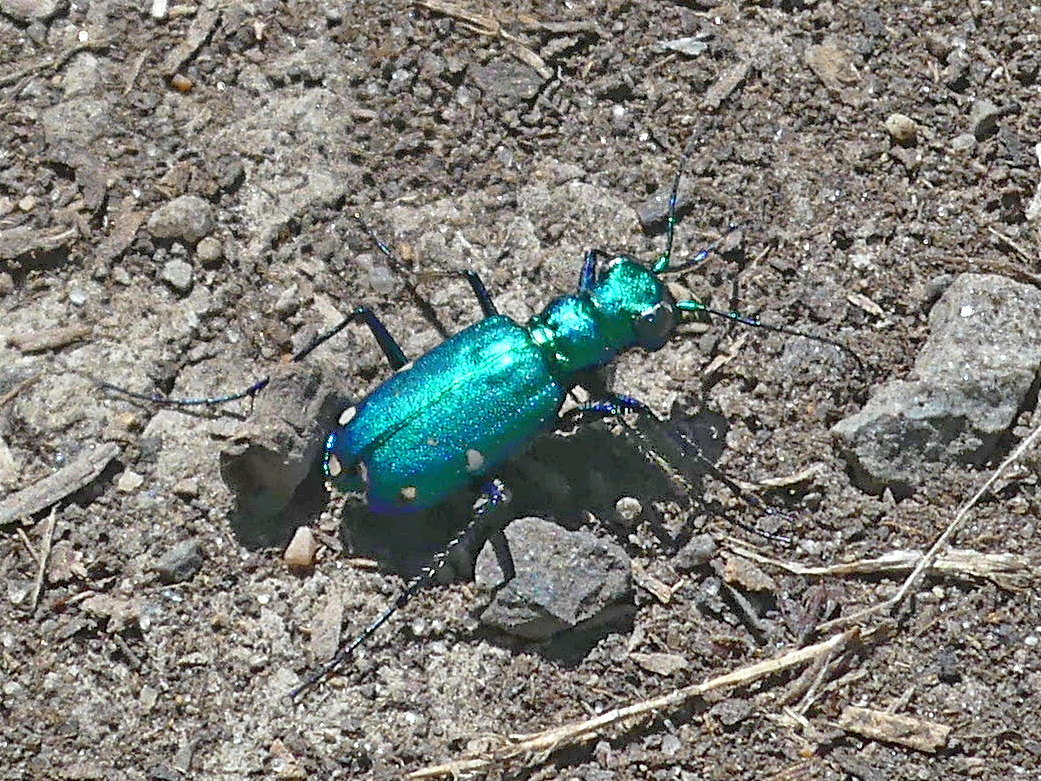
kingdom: Animalia
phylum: Arthropoda
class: Insecta
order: Coleoptera
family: Carabidae
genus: Cicindela
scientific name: Cicindela sexguttata
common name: Six-spotted tiger beetle
